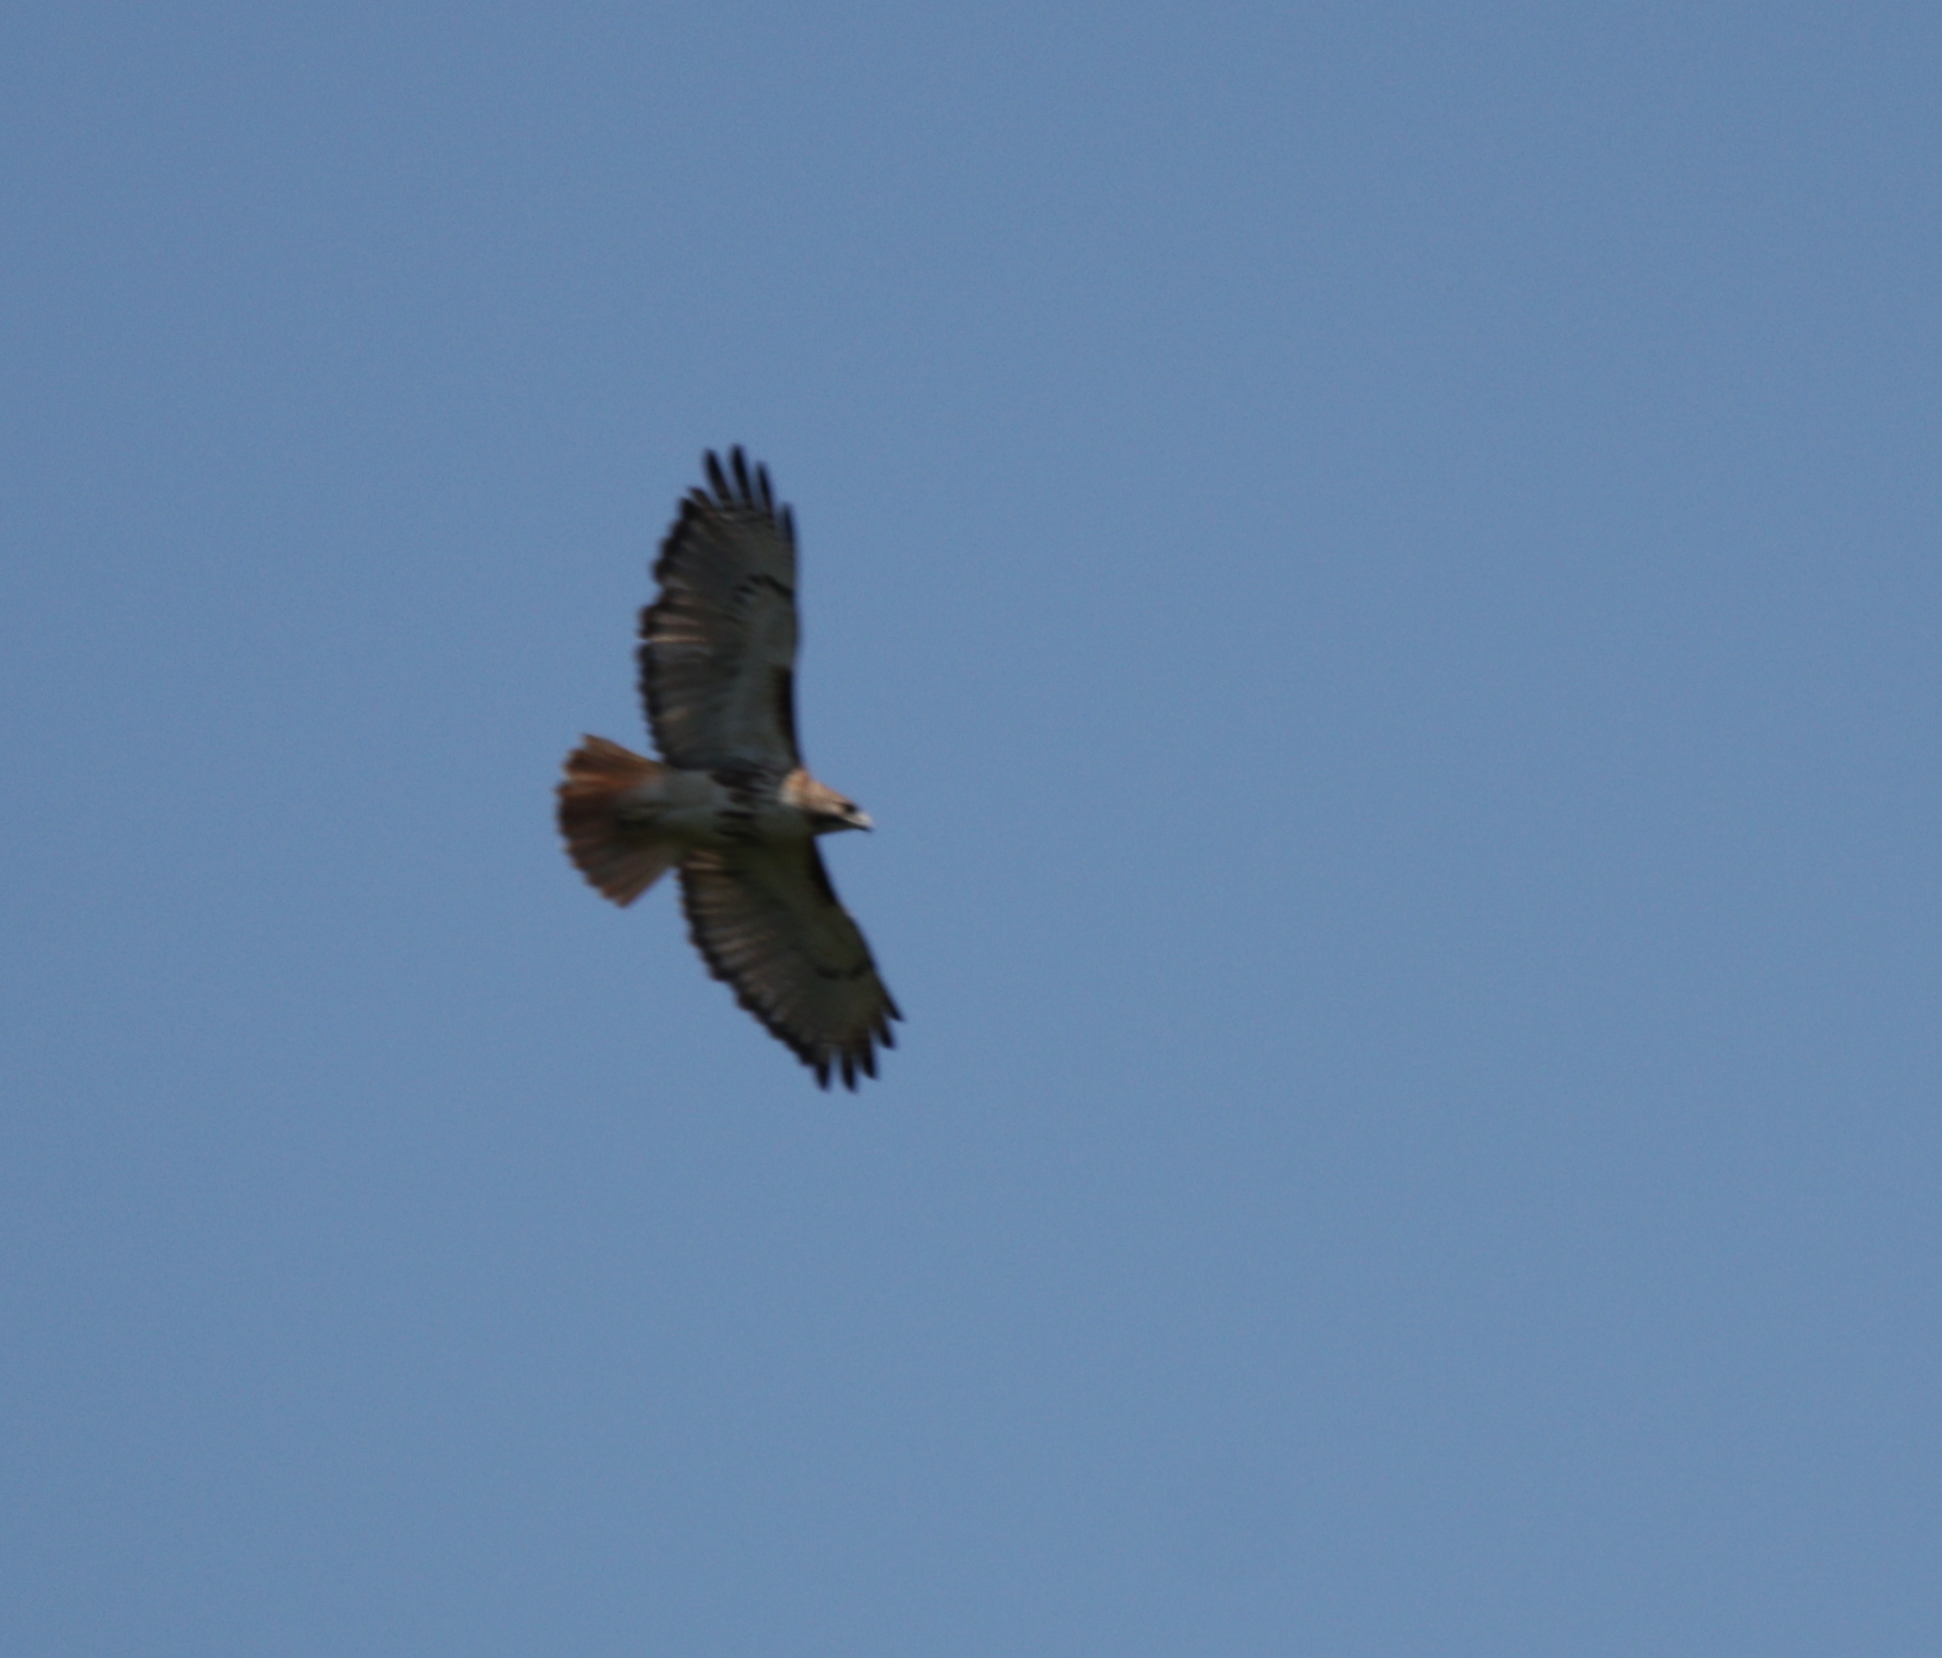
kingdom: Animalia
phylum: Chordata
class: Aves
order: Accipitriformes
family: Accipitridae
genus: Buteo
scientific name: Buteo jamaicensis
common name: Red-tailed hawk
